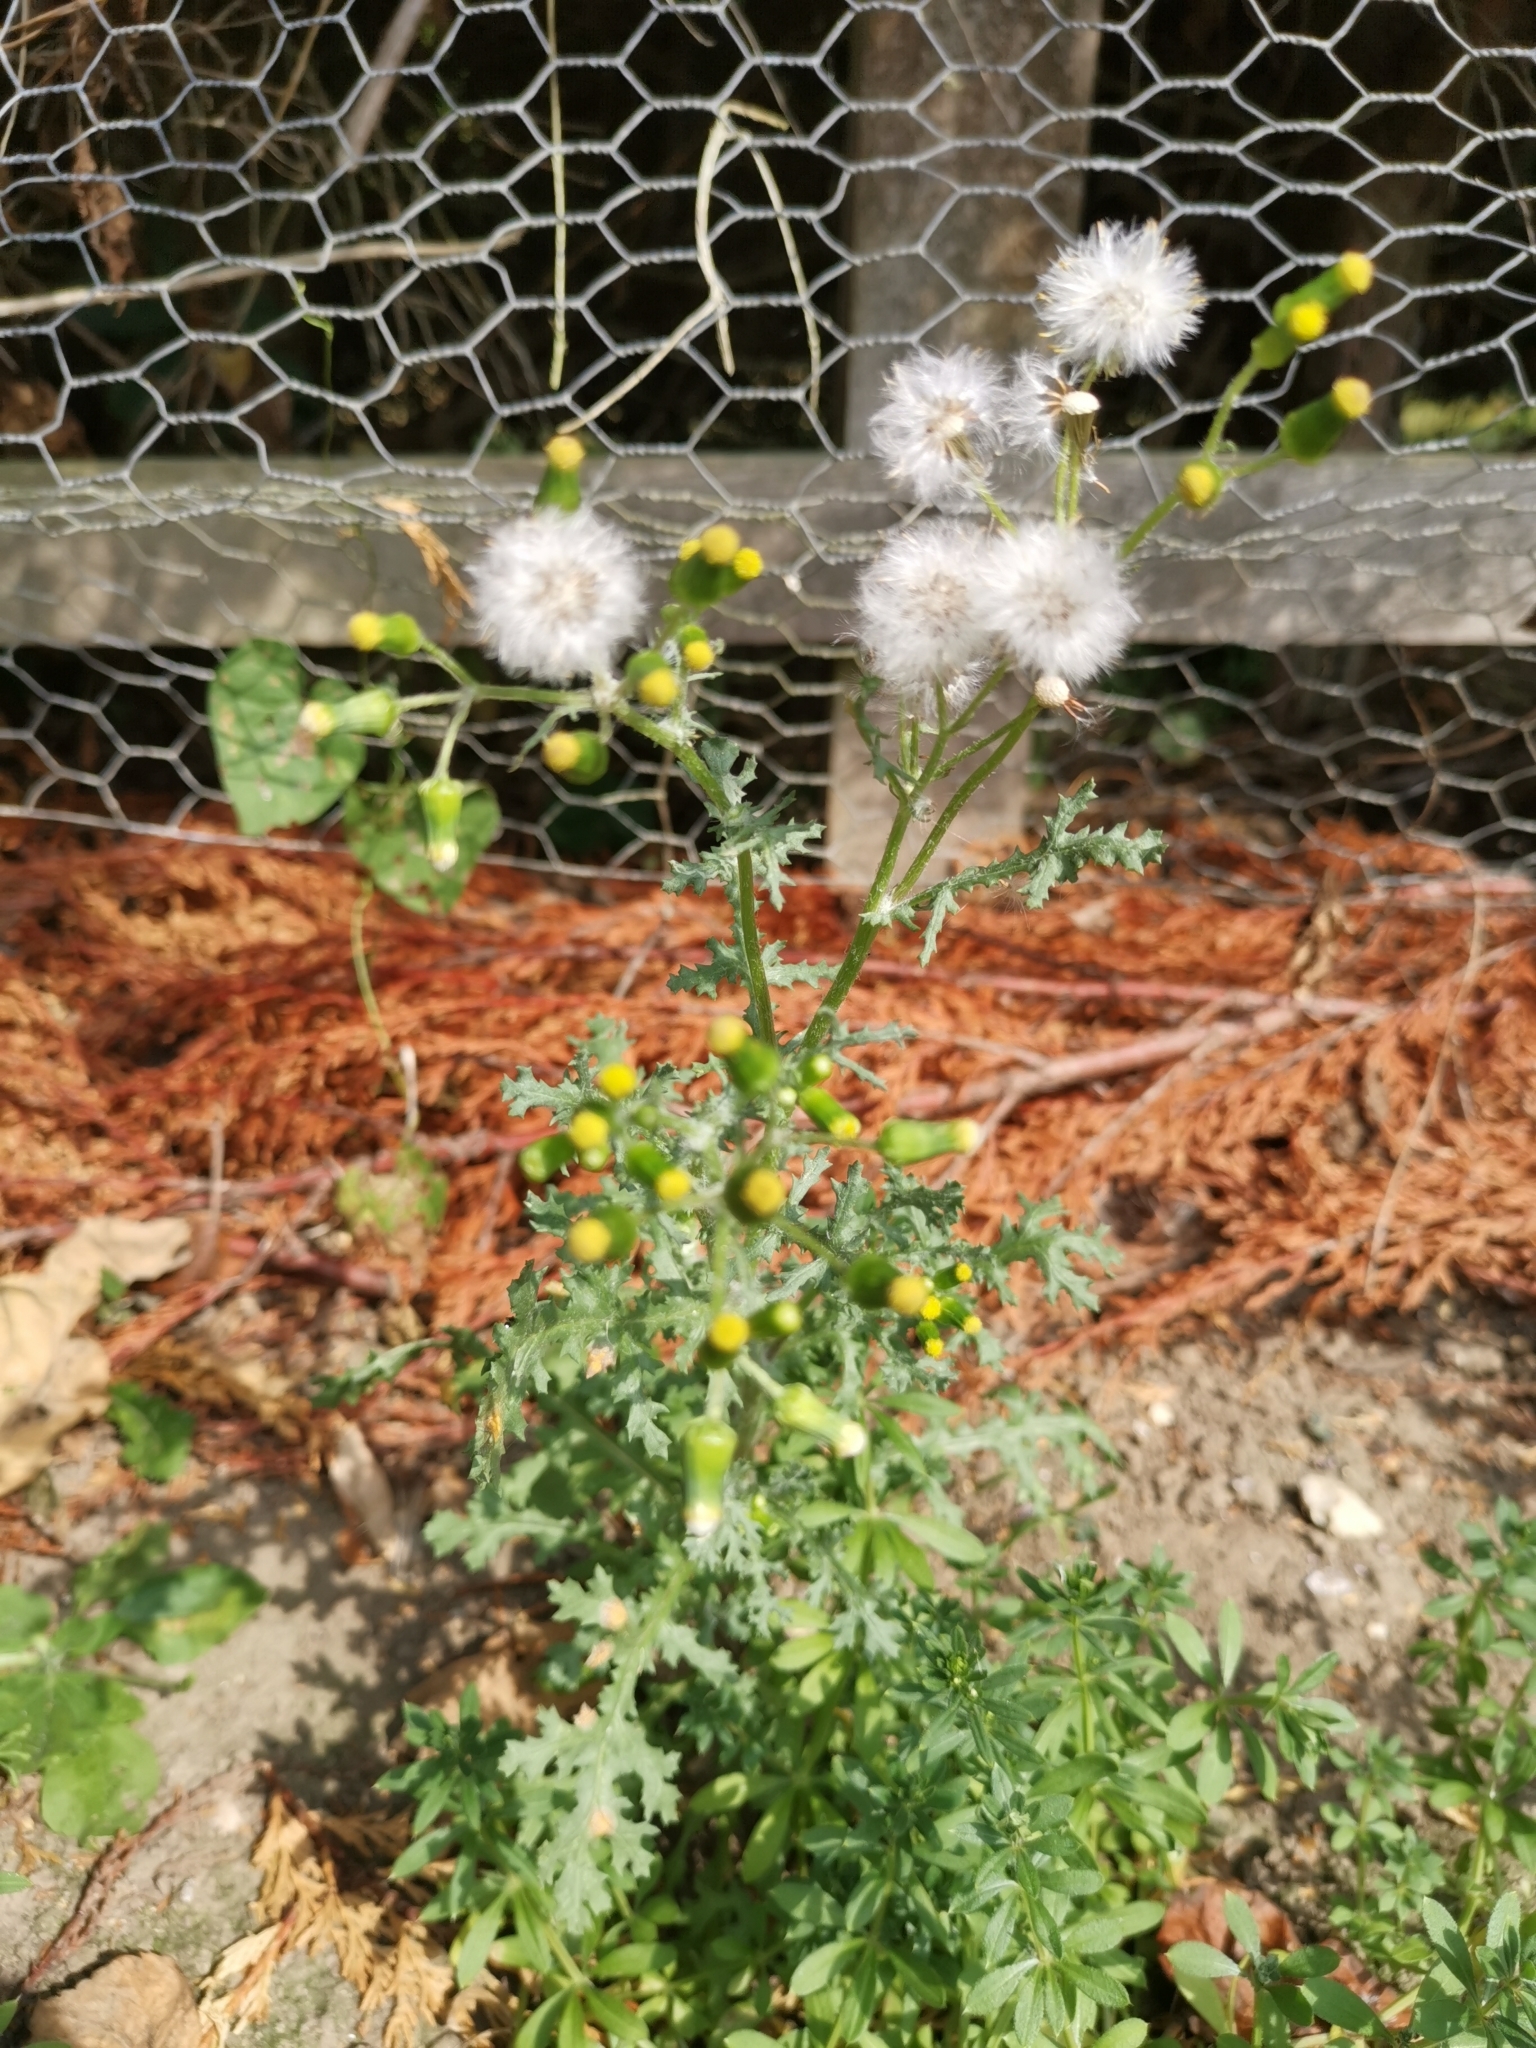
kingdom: Plantae
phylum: Tracheophyta
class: Magnoliopsida
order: Asterales
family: Asteraceae
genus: Senecio
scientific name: Senecio vulgaris
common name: Old-man-in-the-spring
